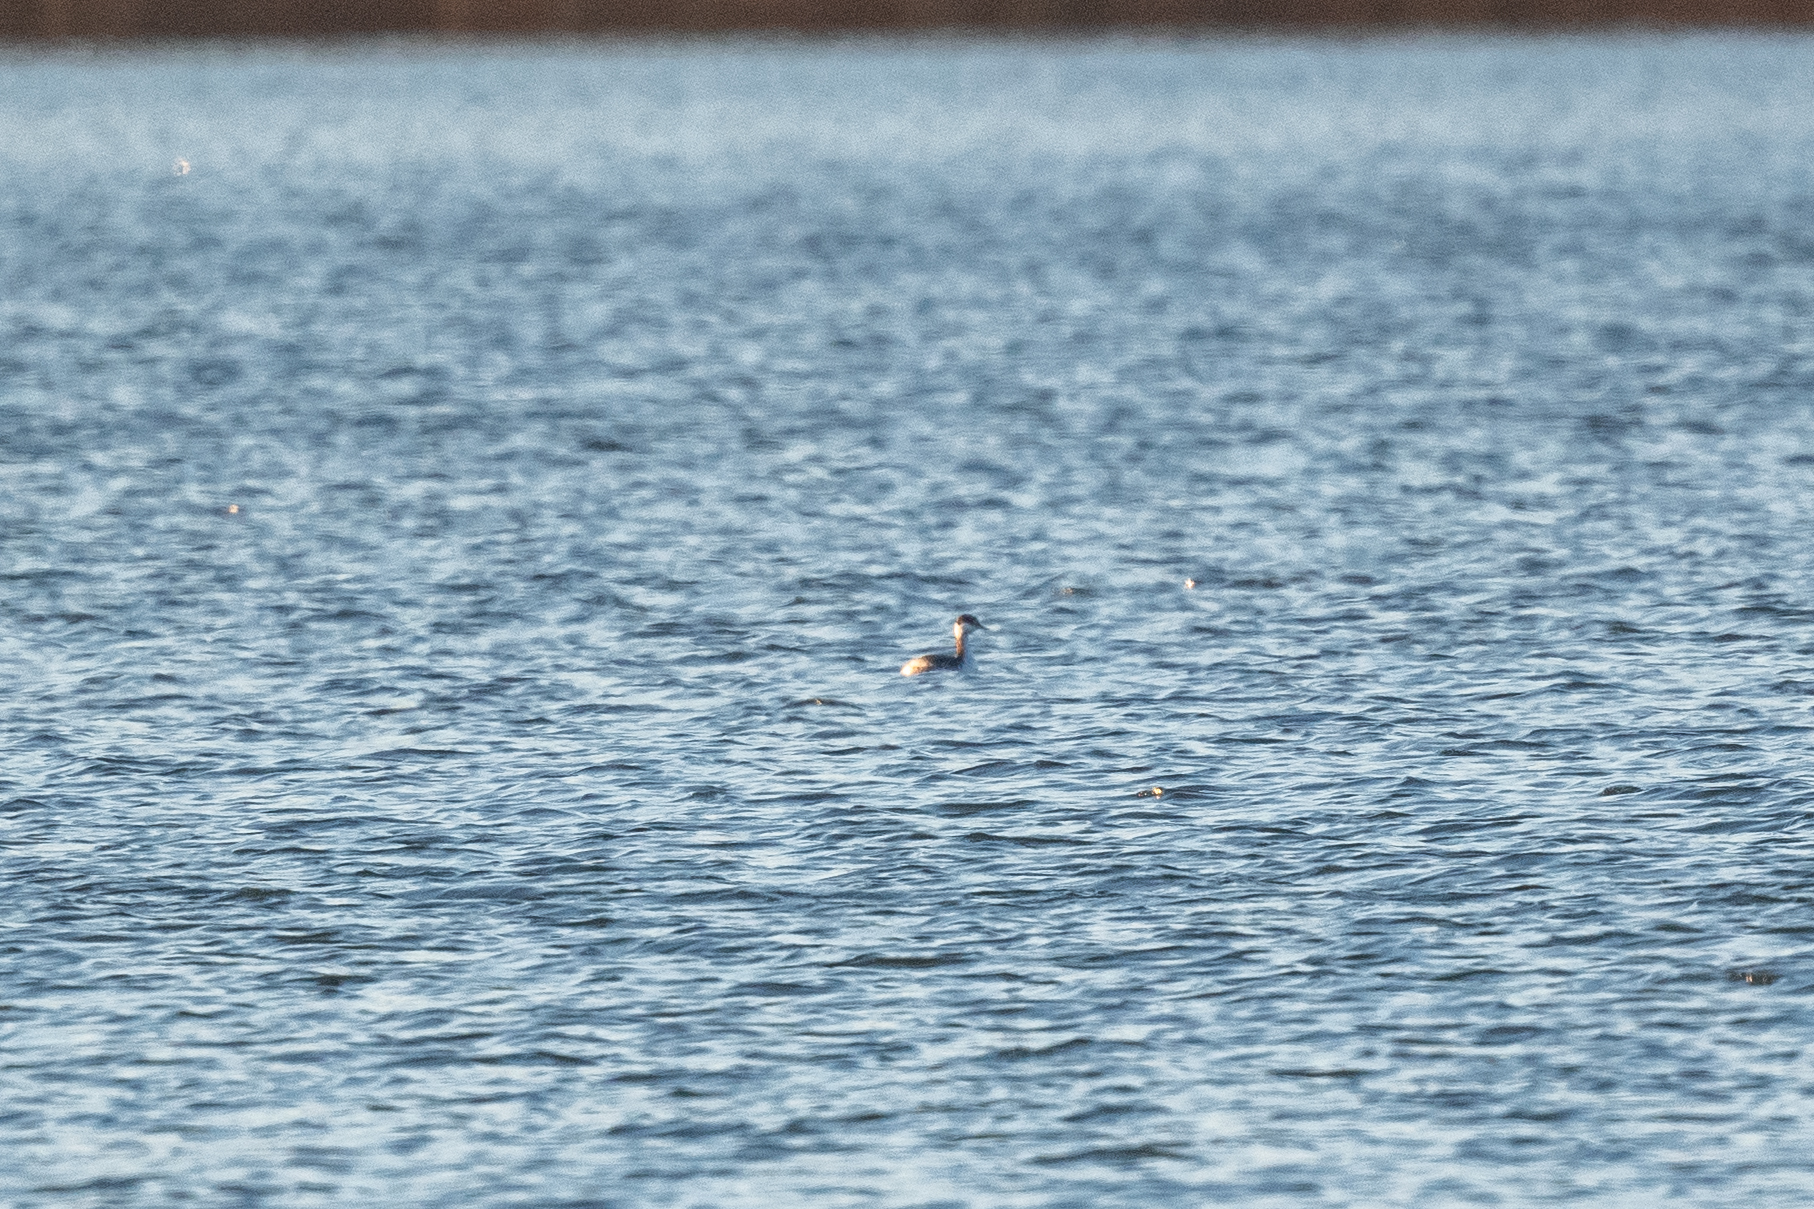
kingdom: Animalia
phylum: Chordata
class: Aves
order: Podicipediformes
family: Podicipedidae
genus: Podiceps
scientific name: Podiceps auritus
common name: Horned grebe
